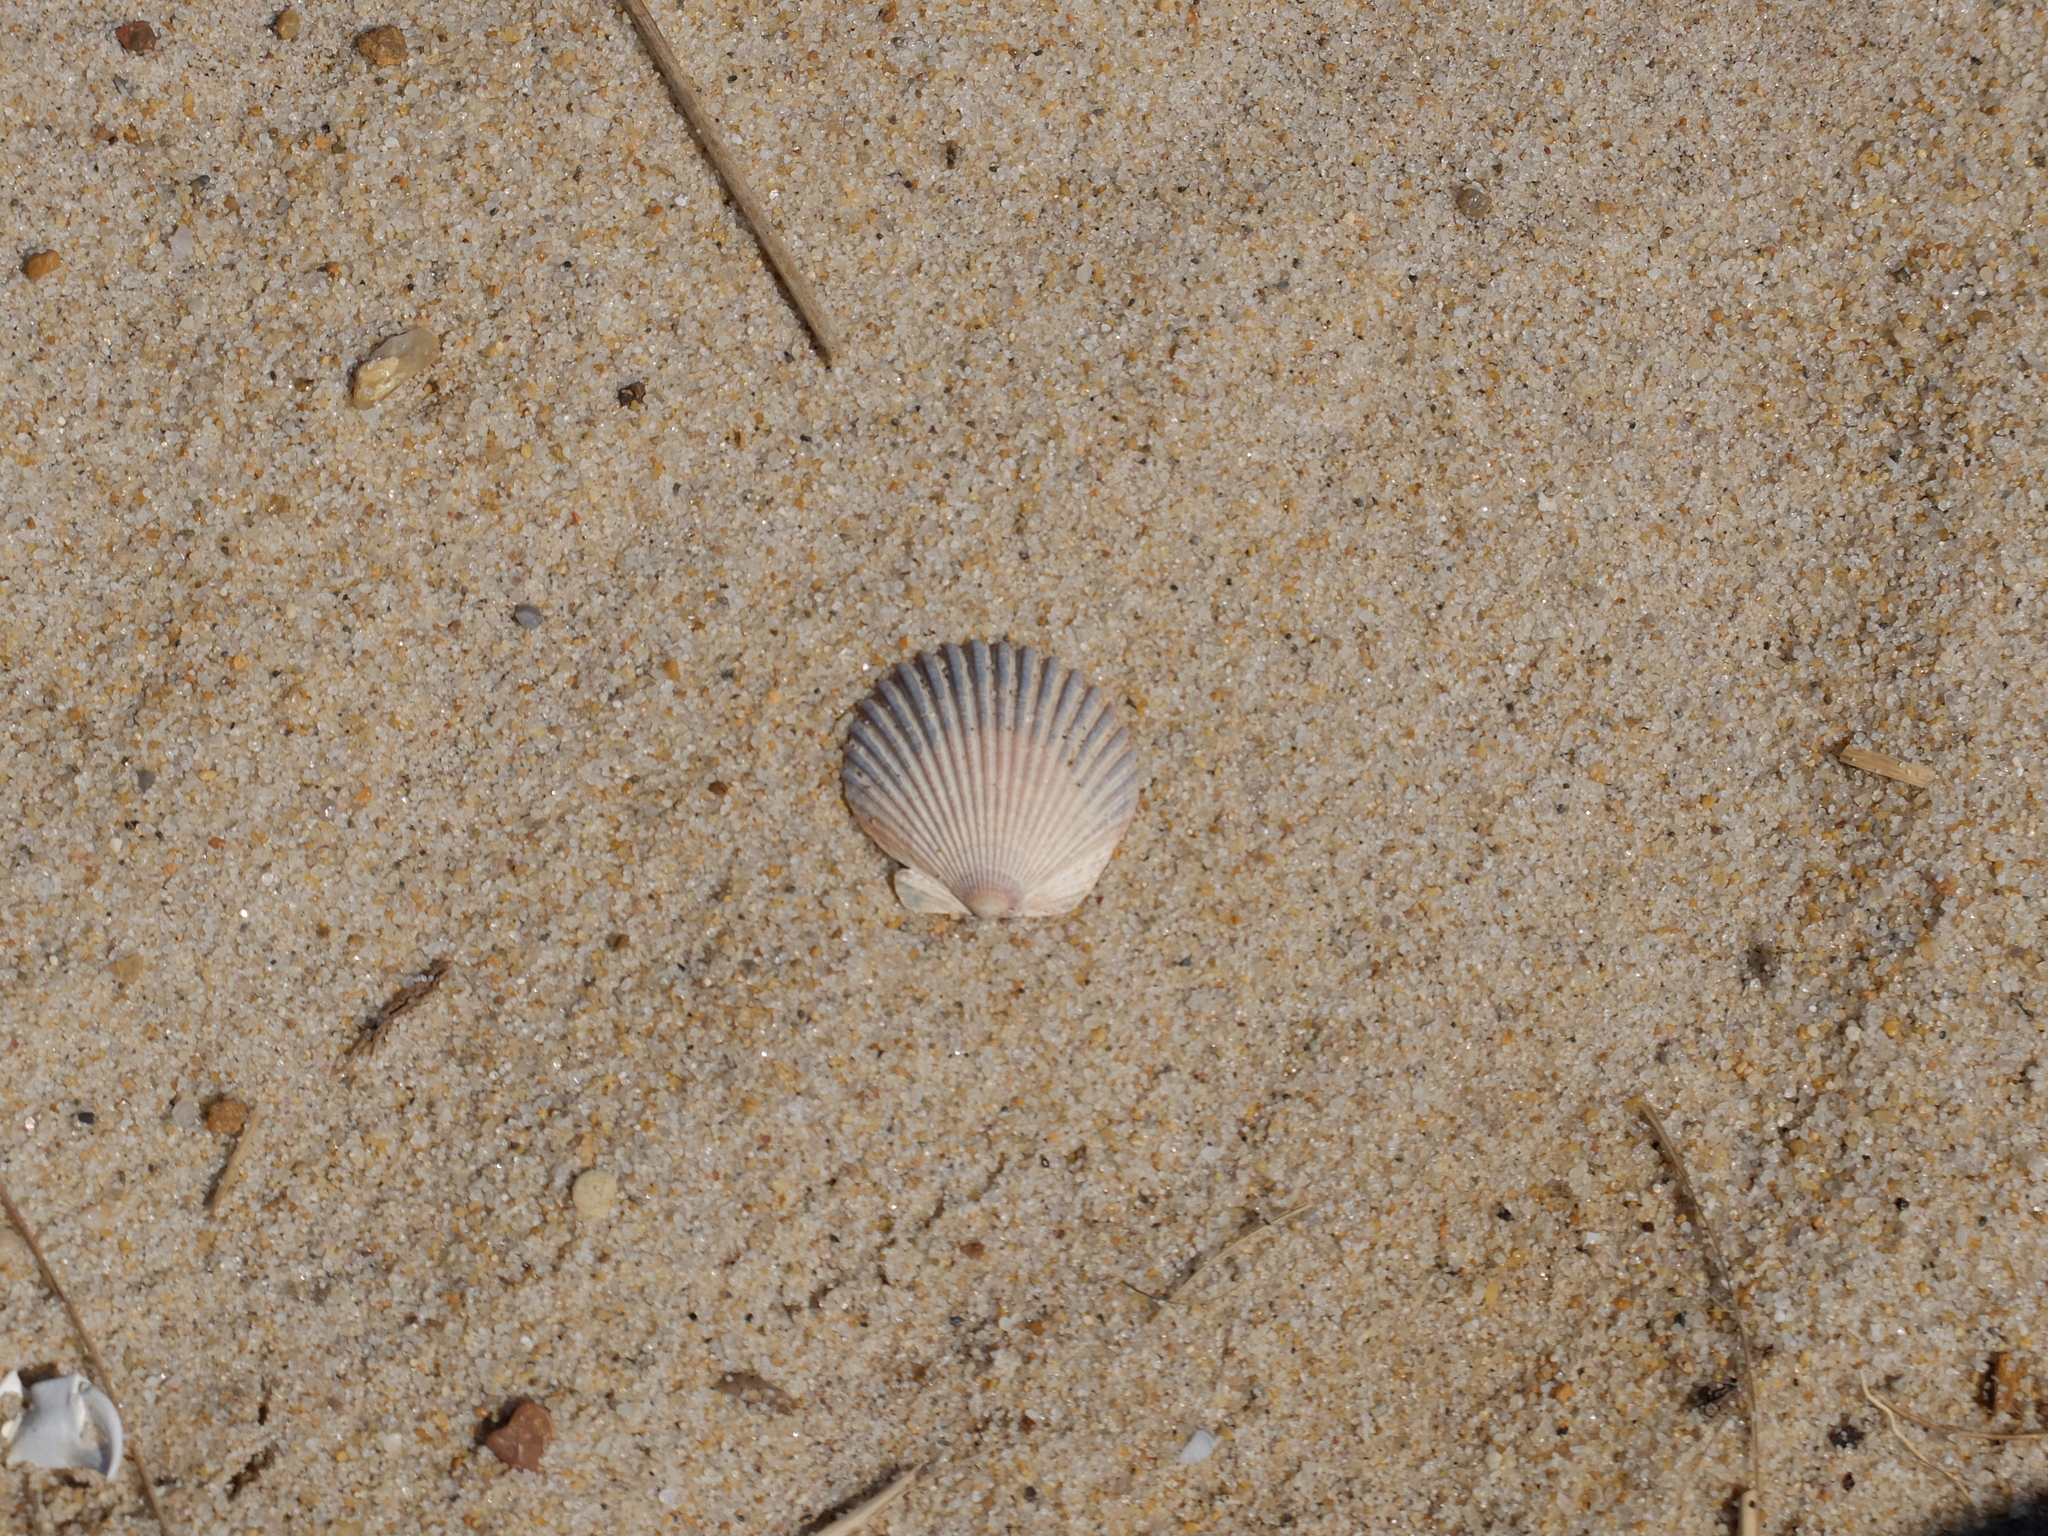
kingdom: Animalia
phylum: Mollusca
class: Bivalvia
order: Pectinida
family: Pectinidae
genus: Argopecten
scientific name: Argopecten irradians
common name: Atlantic bay scallop
